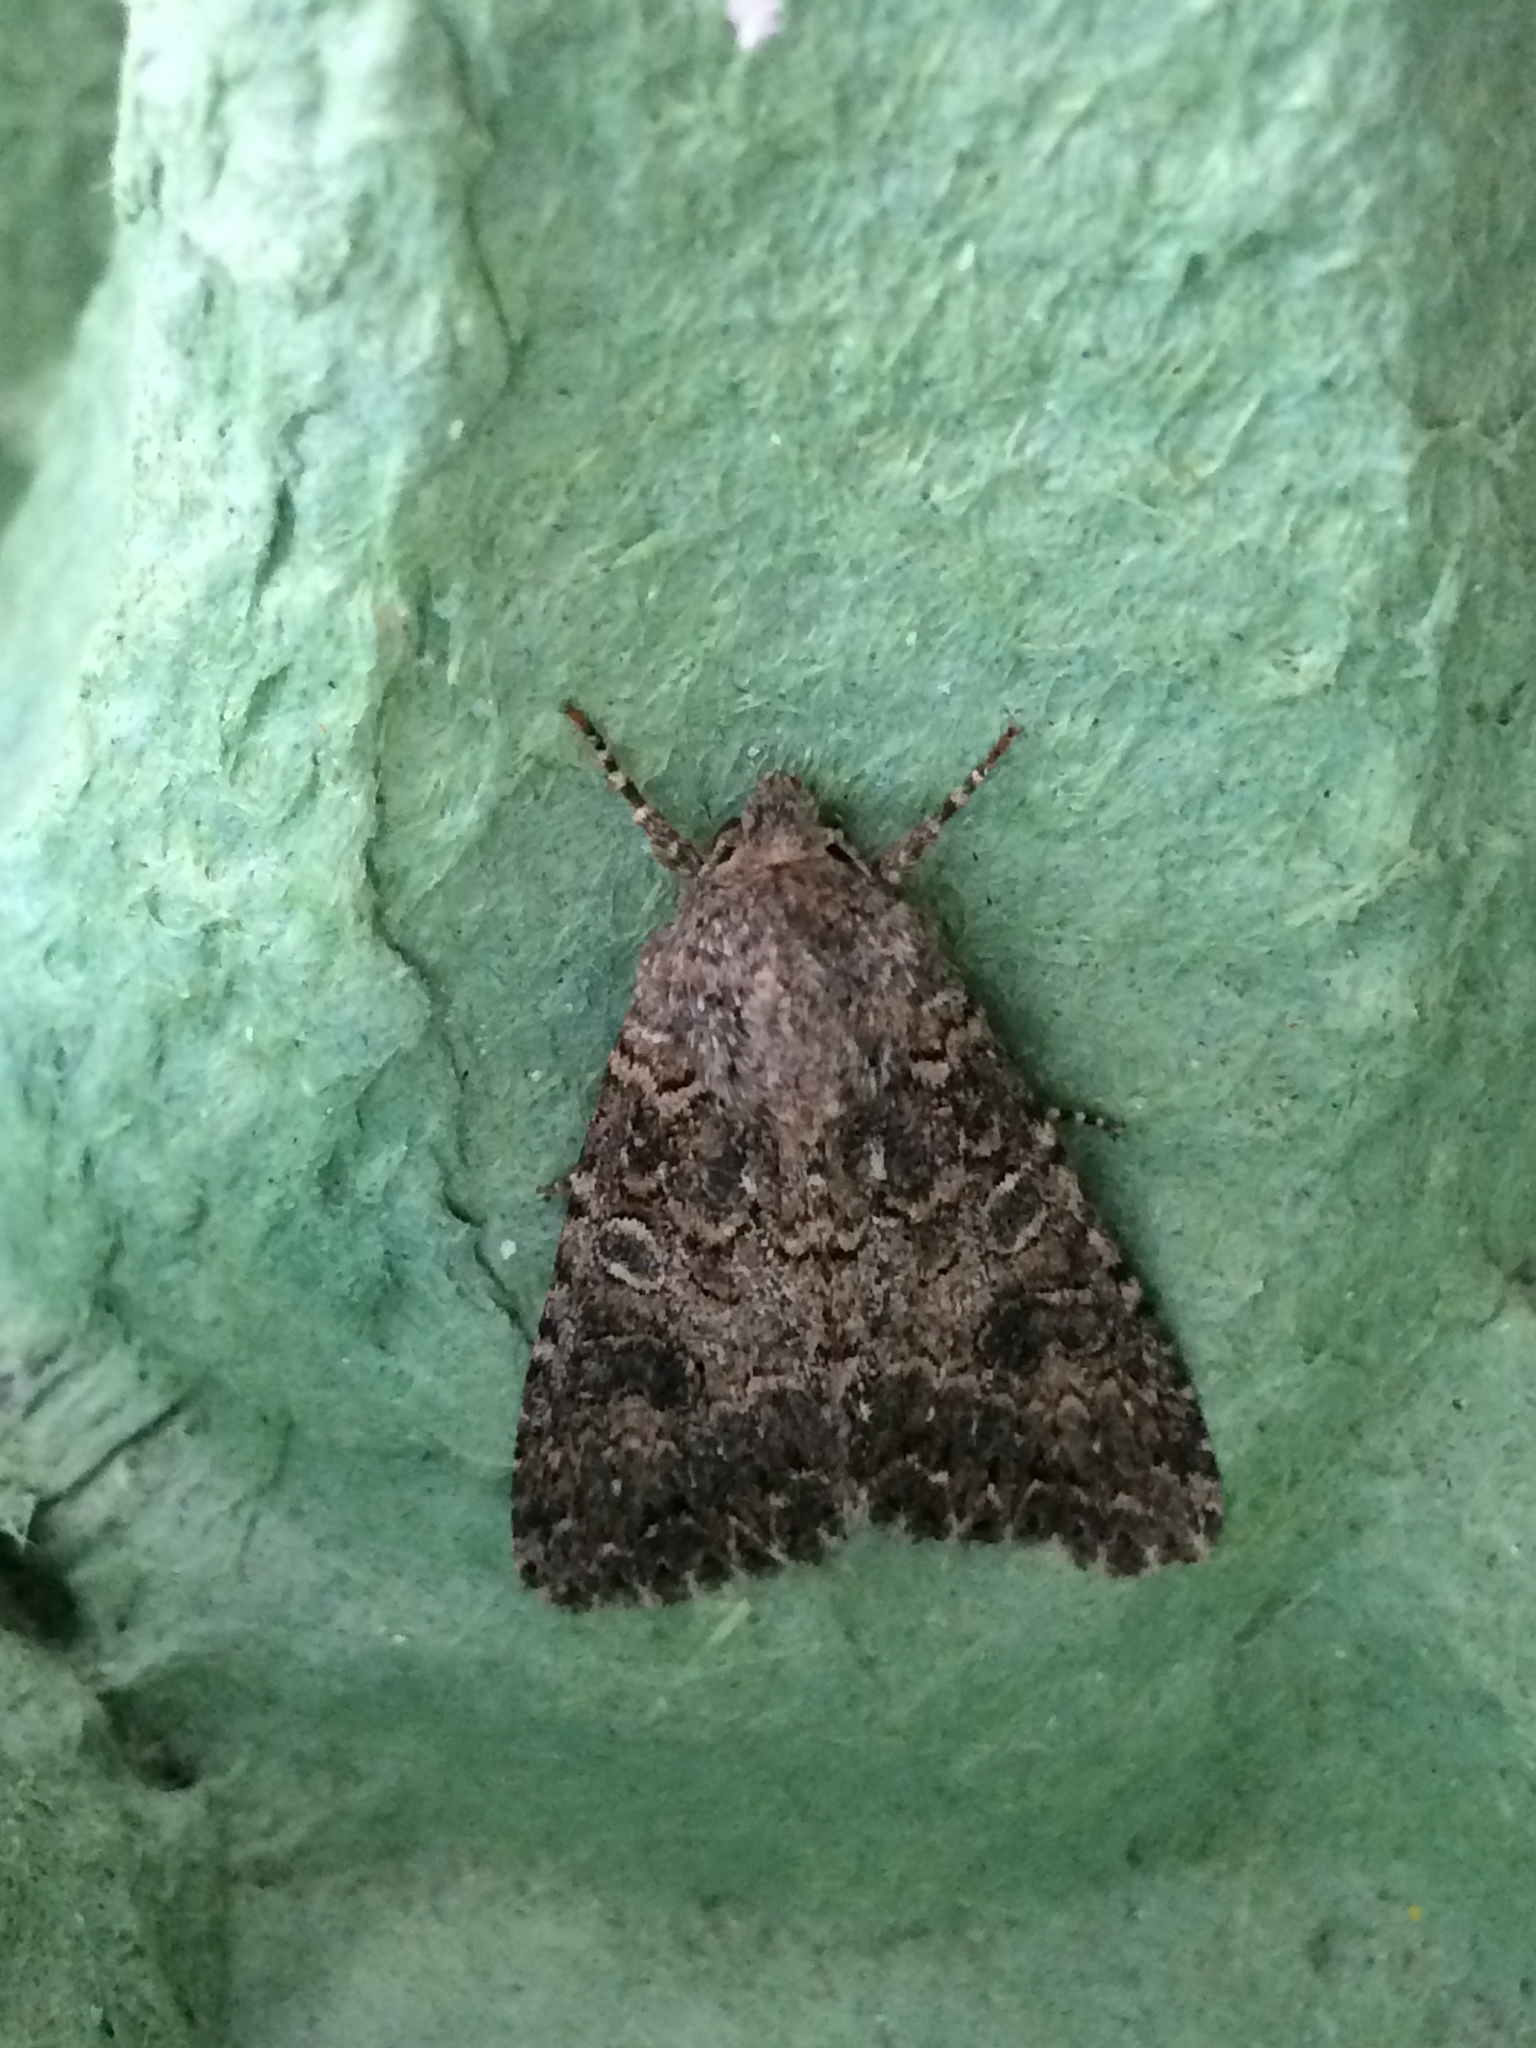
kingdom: Animalia
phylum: Arthropoda
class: Insecta
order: Lepidoptera
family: Noctuidae
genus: Anarta
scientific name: Anarta trifolii
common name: Clover cutworm moth
